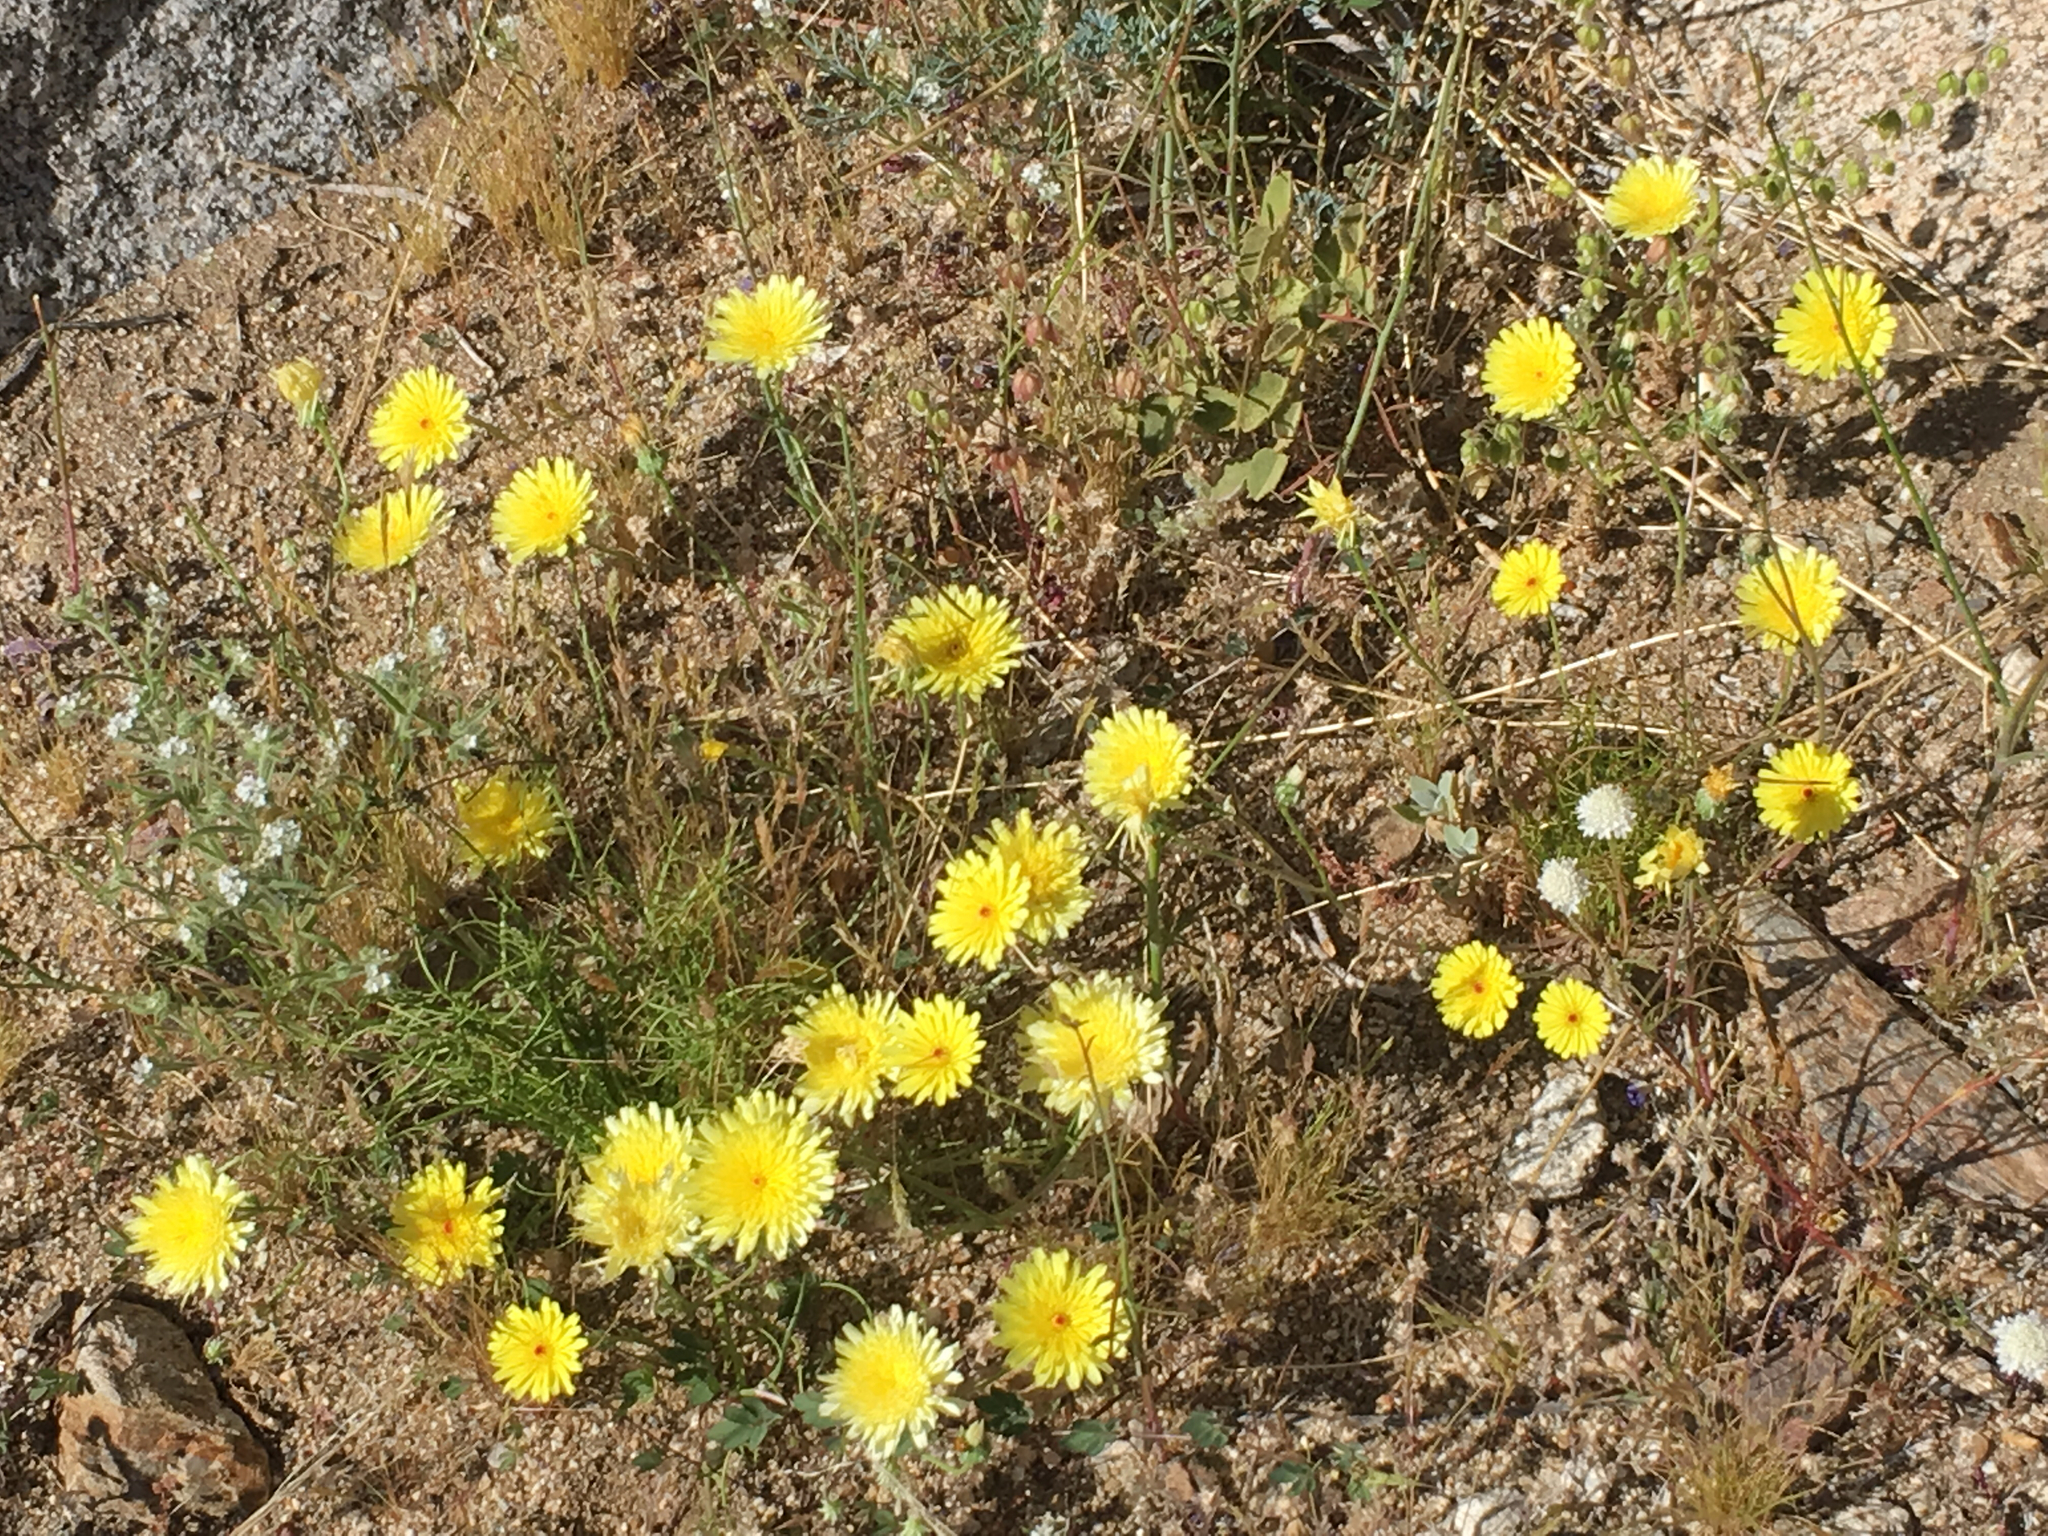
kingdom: Plantae
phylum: Tracheophyta
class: Magnoliopsida
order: Asterales
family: Asteraceae
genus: Malacothrix
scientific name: Malacothrix glabrata
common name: Smooth desert-dandelion
